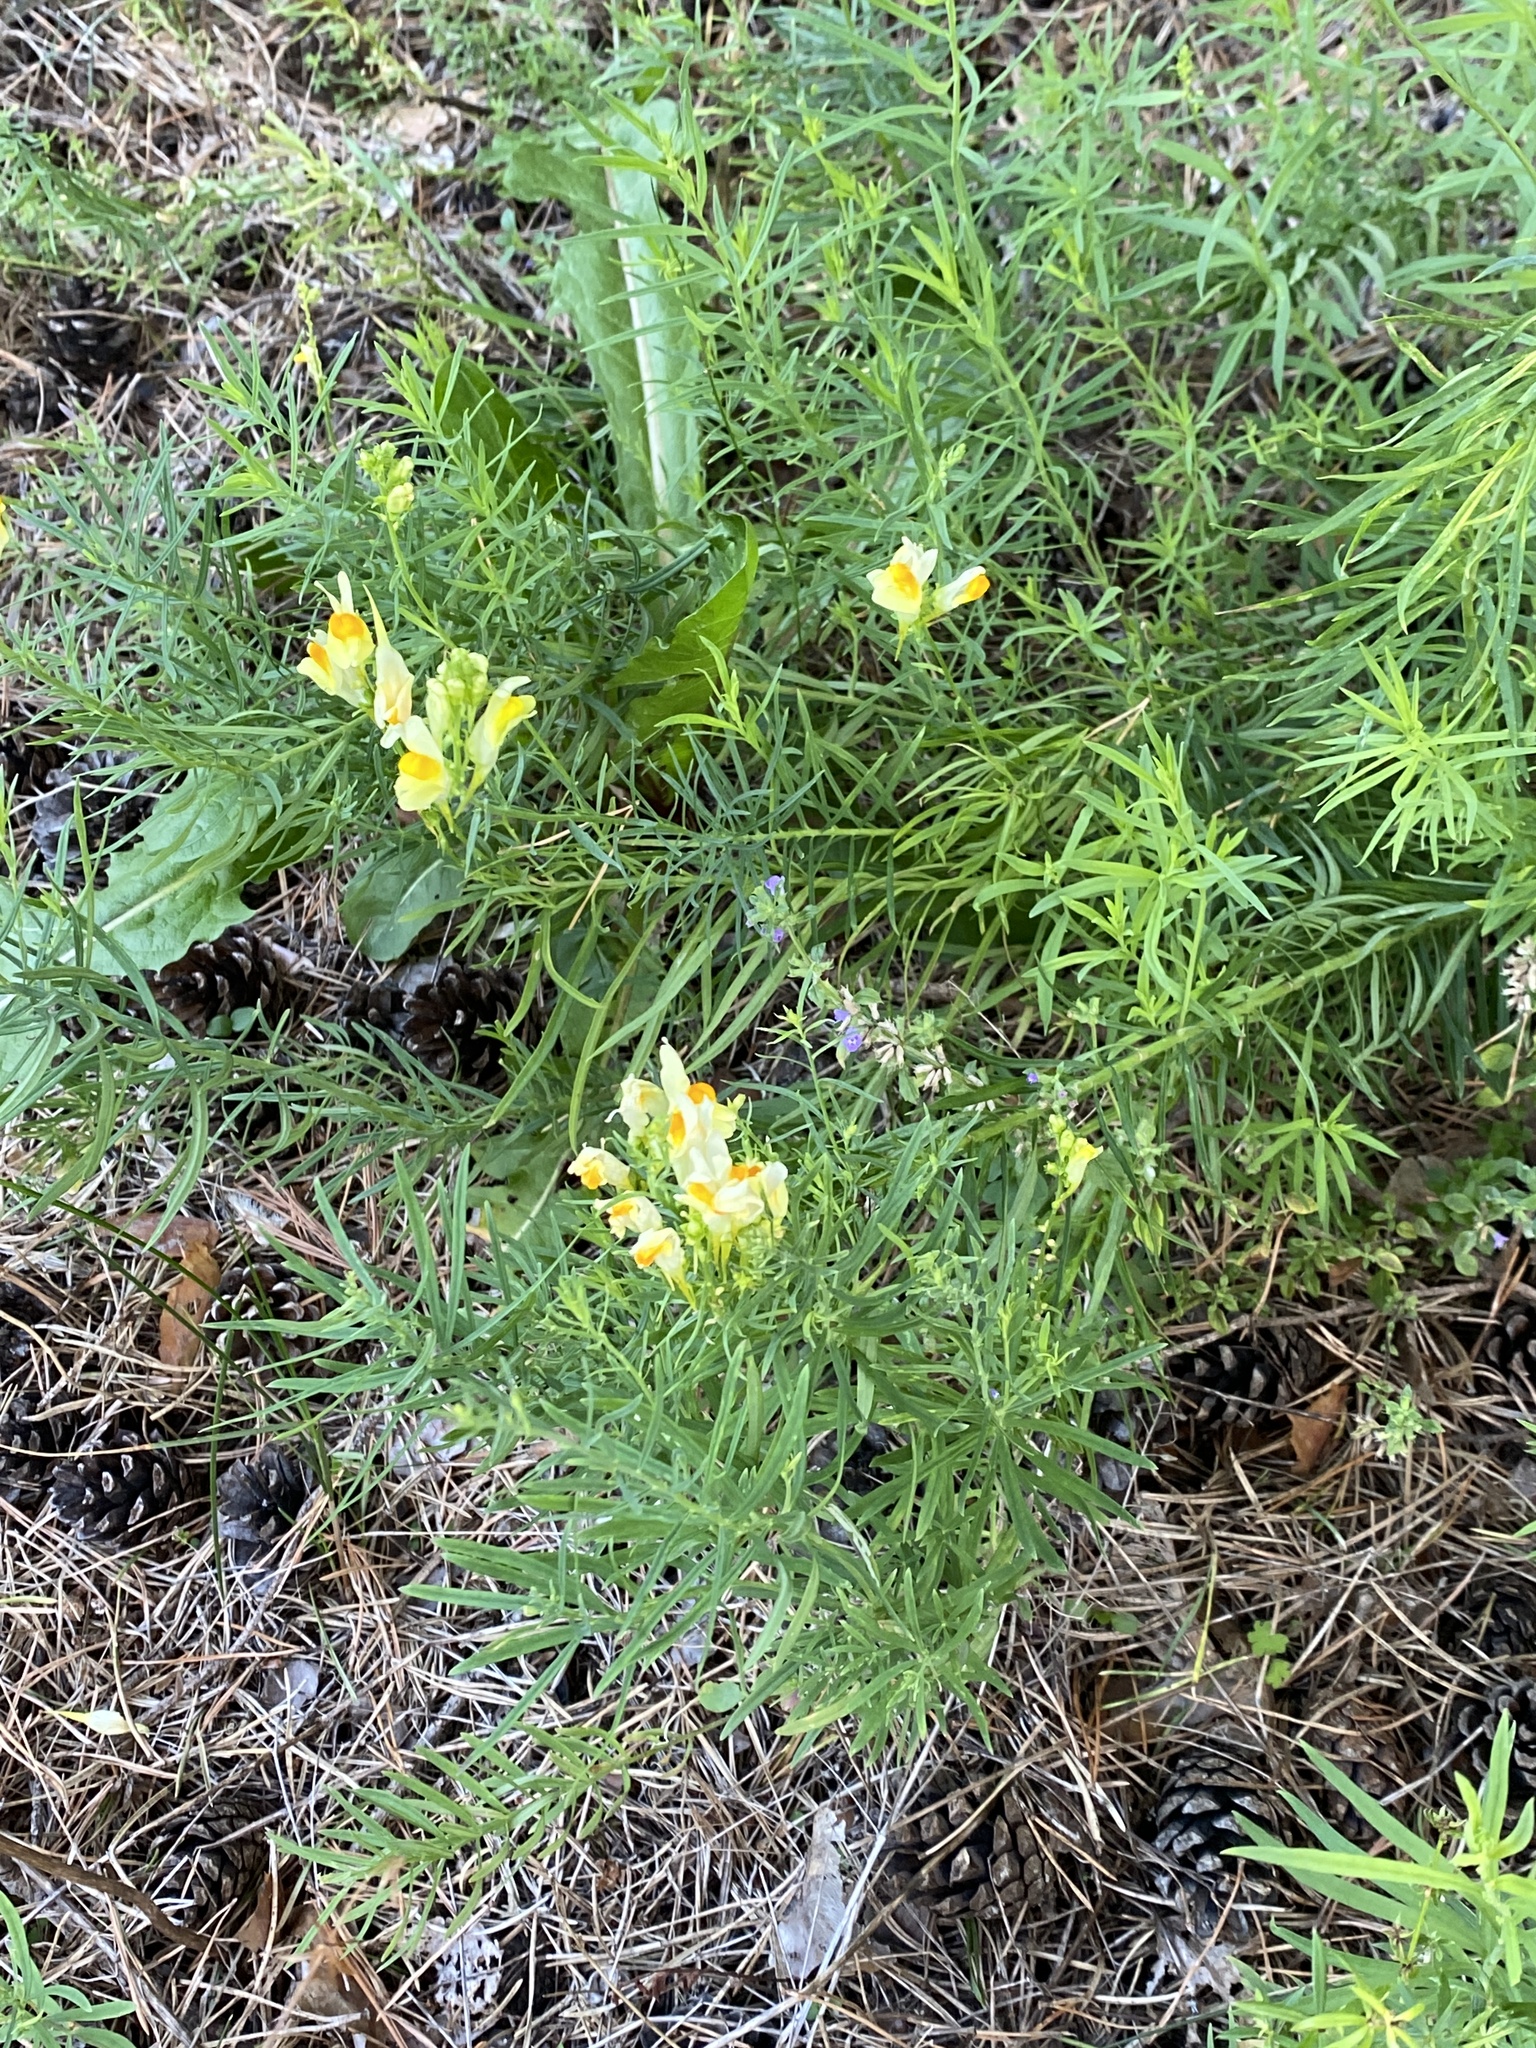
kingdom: Plantae
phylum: Tracheophyta
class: Magnoliopsida
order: Lamiales
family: Plantaginaceae
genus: Linaria
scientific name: Linaria vulgaris
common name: Butter and eggs
